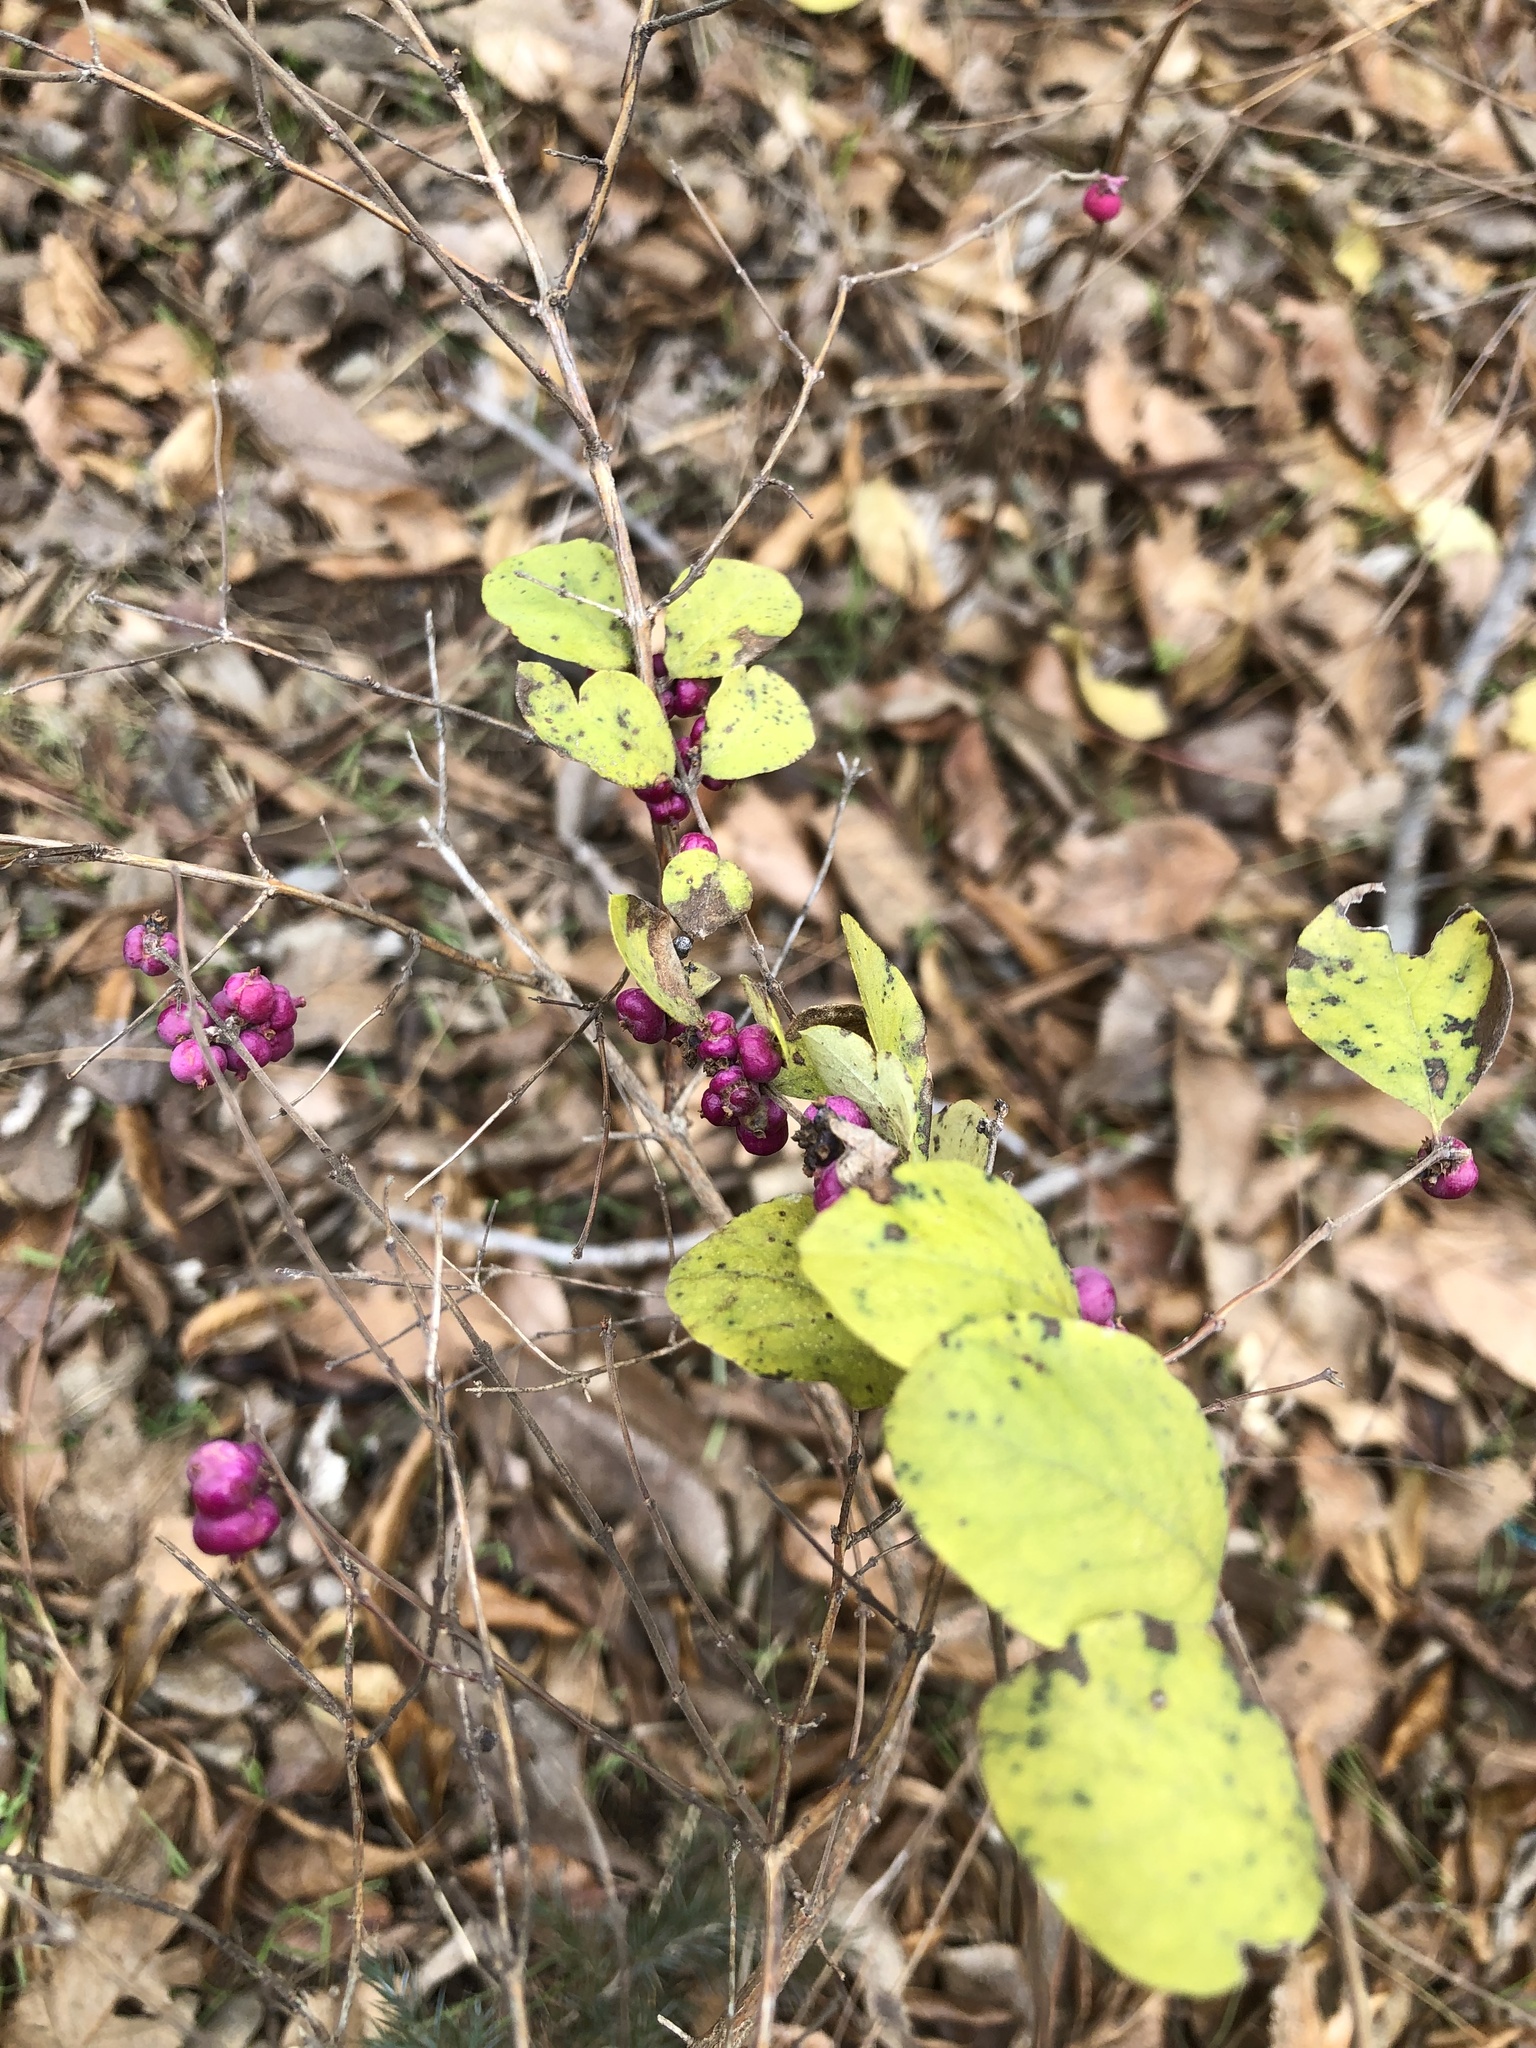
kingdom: Plantae
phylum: Tracheophyta
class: Magnoliopsida
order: Dipsacales
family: Caprifoliaceae
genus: Symphoricarpos
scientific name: Symphoricarpos orbiculatus
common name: Coralberry
